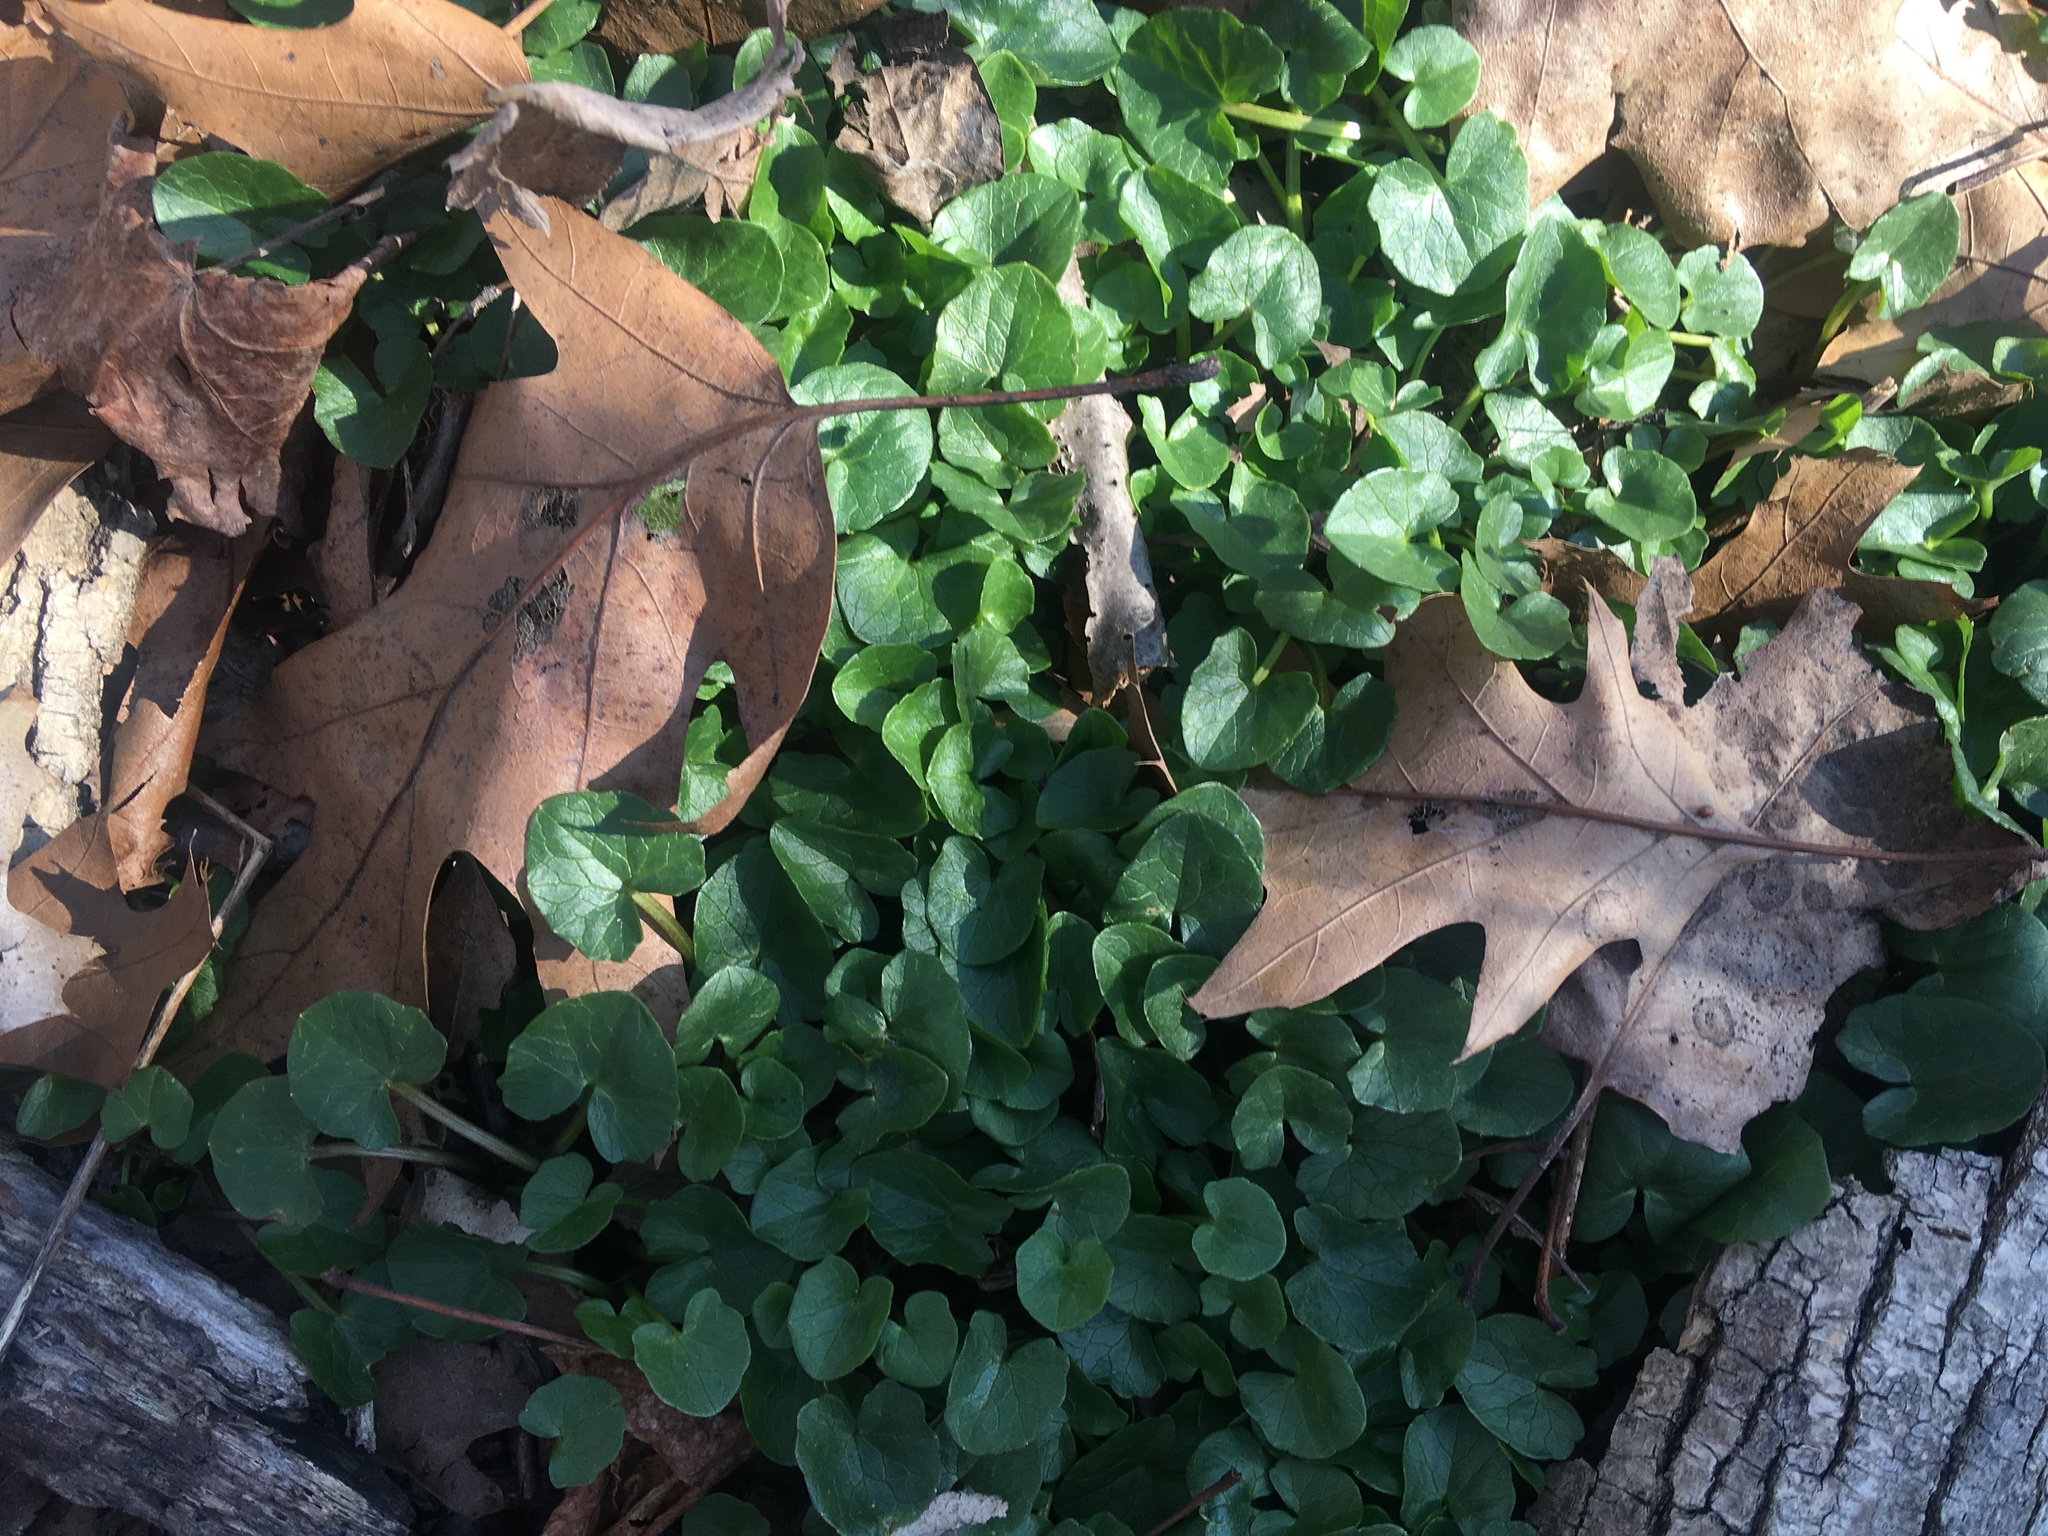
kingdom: Plantae
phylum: Tracheophyta
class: Magnoliopsida
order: Ranunculales
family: Ranunculaceae
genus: Ficaria
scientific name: Ficaria verna
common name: Lesser celandine
